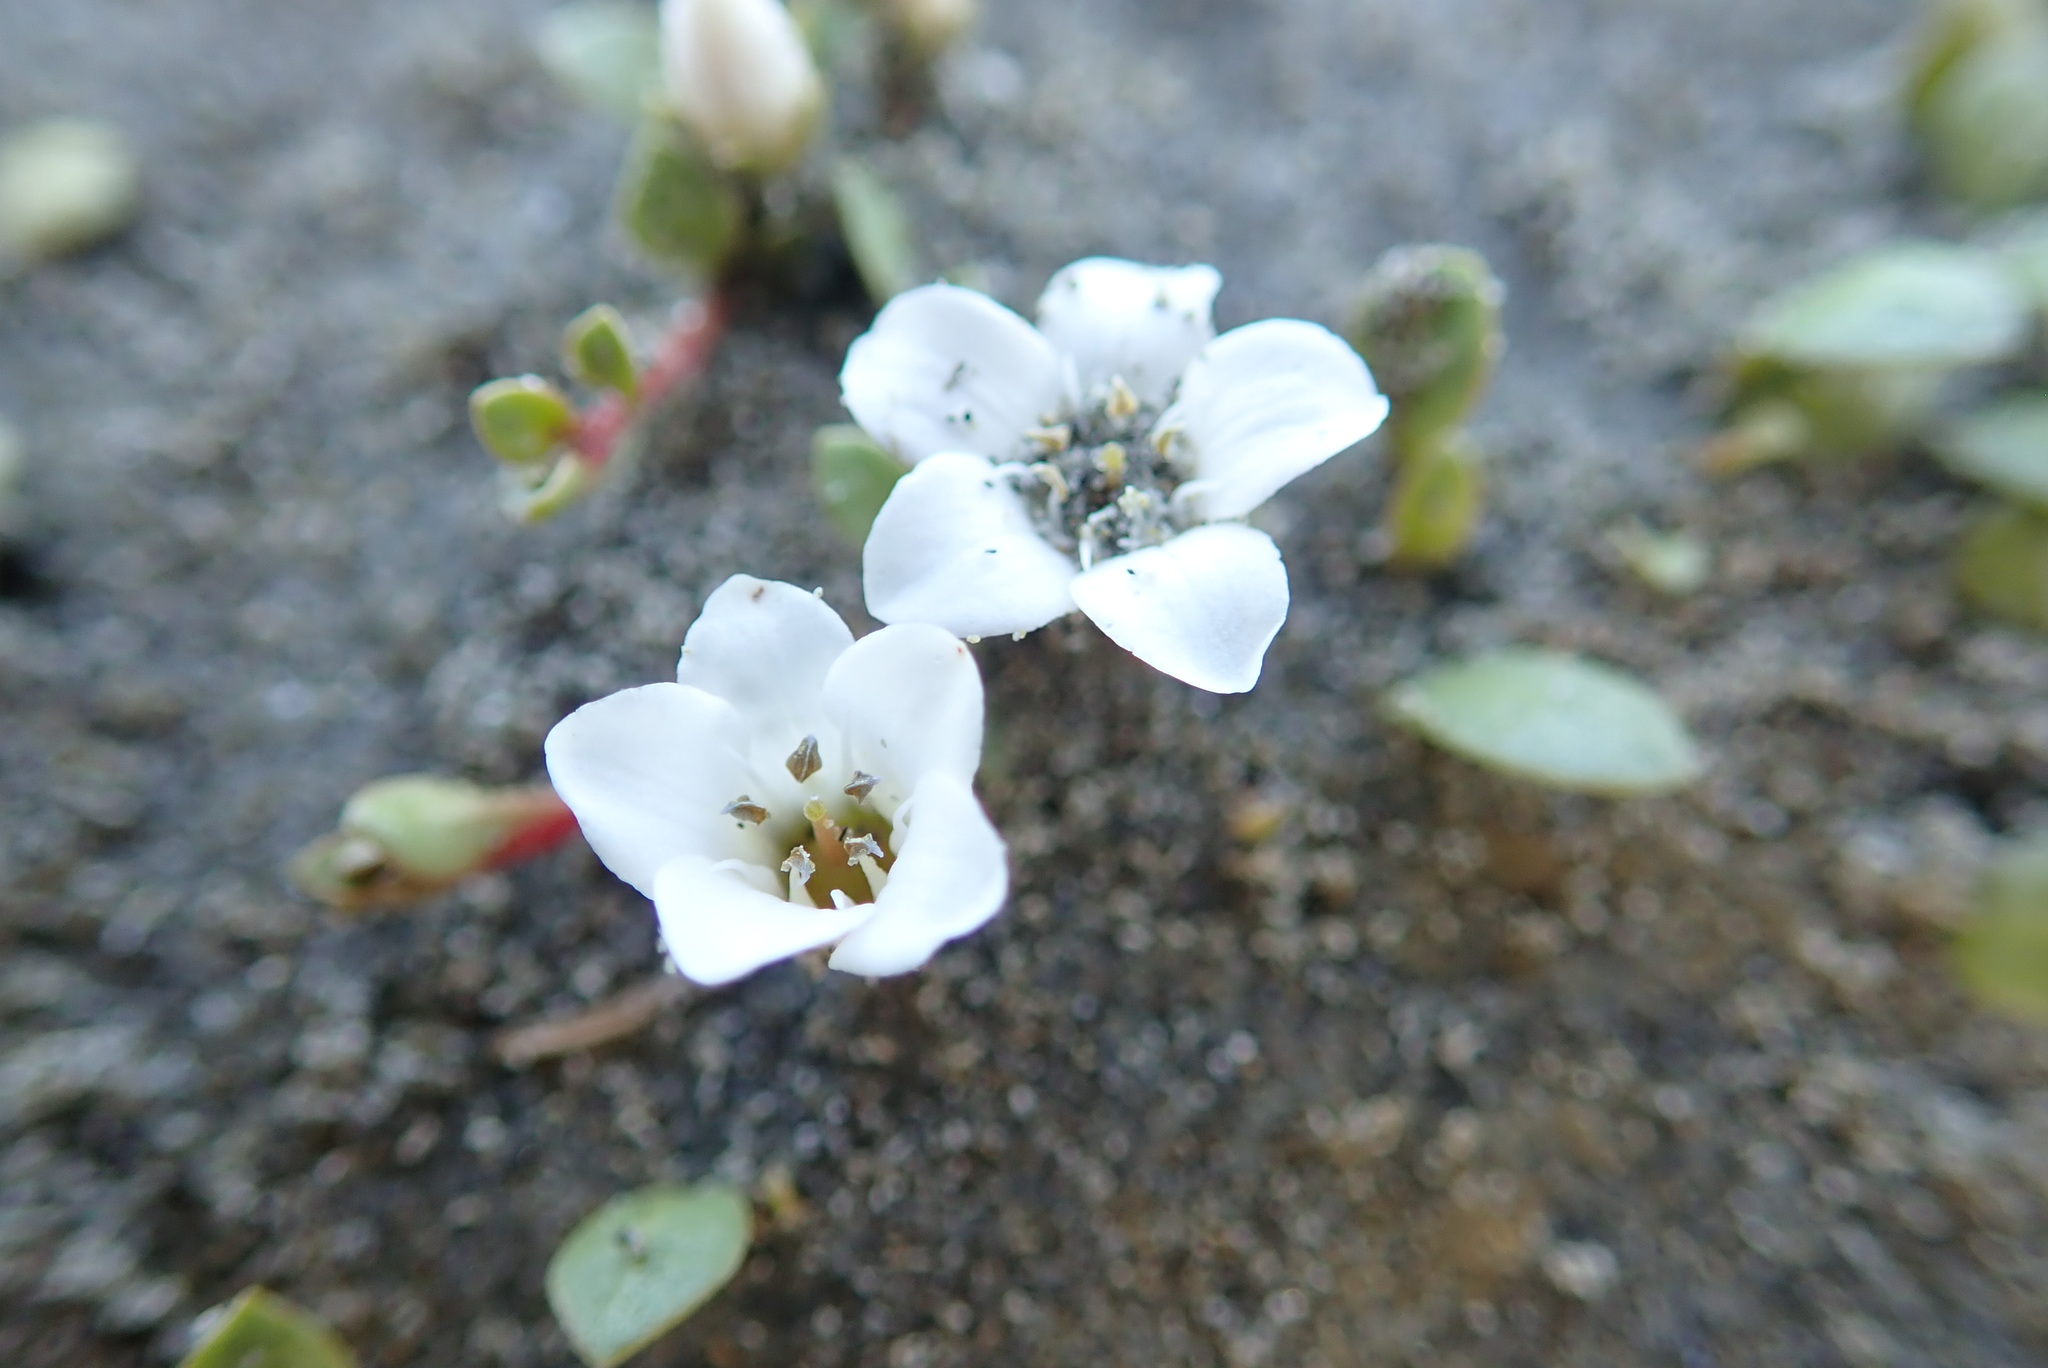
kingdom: Plantae
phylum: Tracheophyta
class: Magnoliopsida
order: Ericales
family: Primulaceae
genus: Samolus
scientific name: Samolus repens
